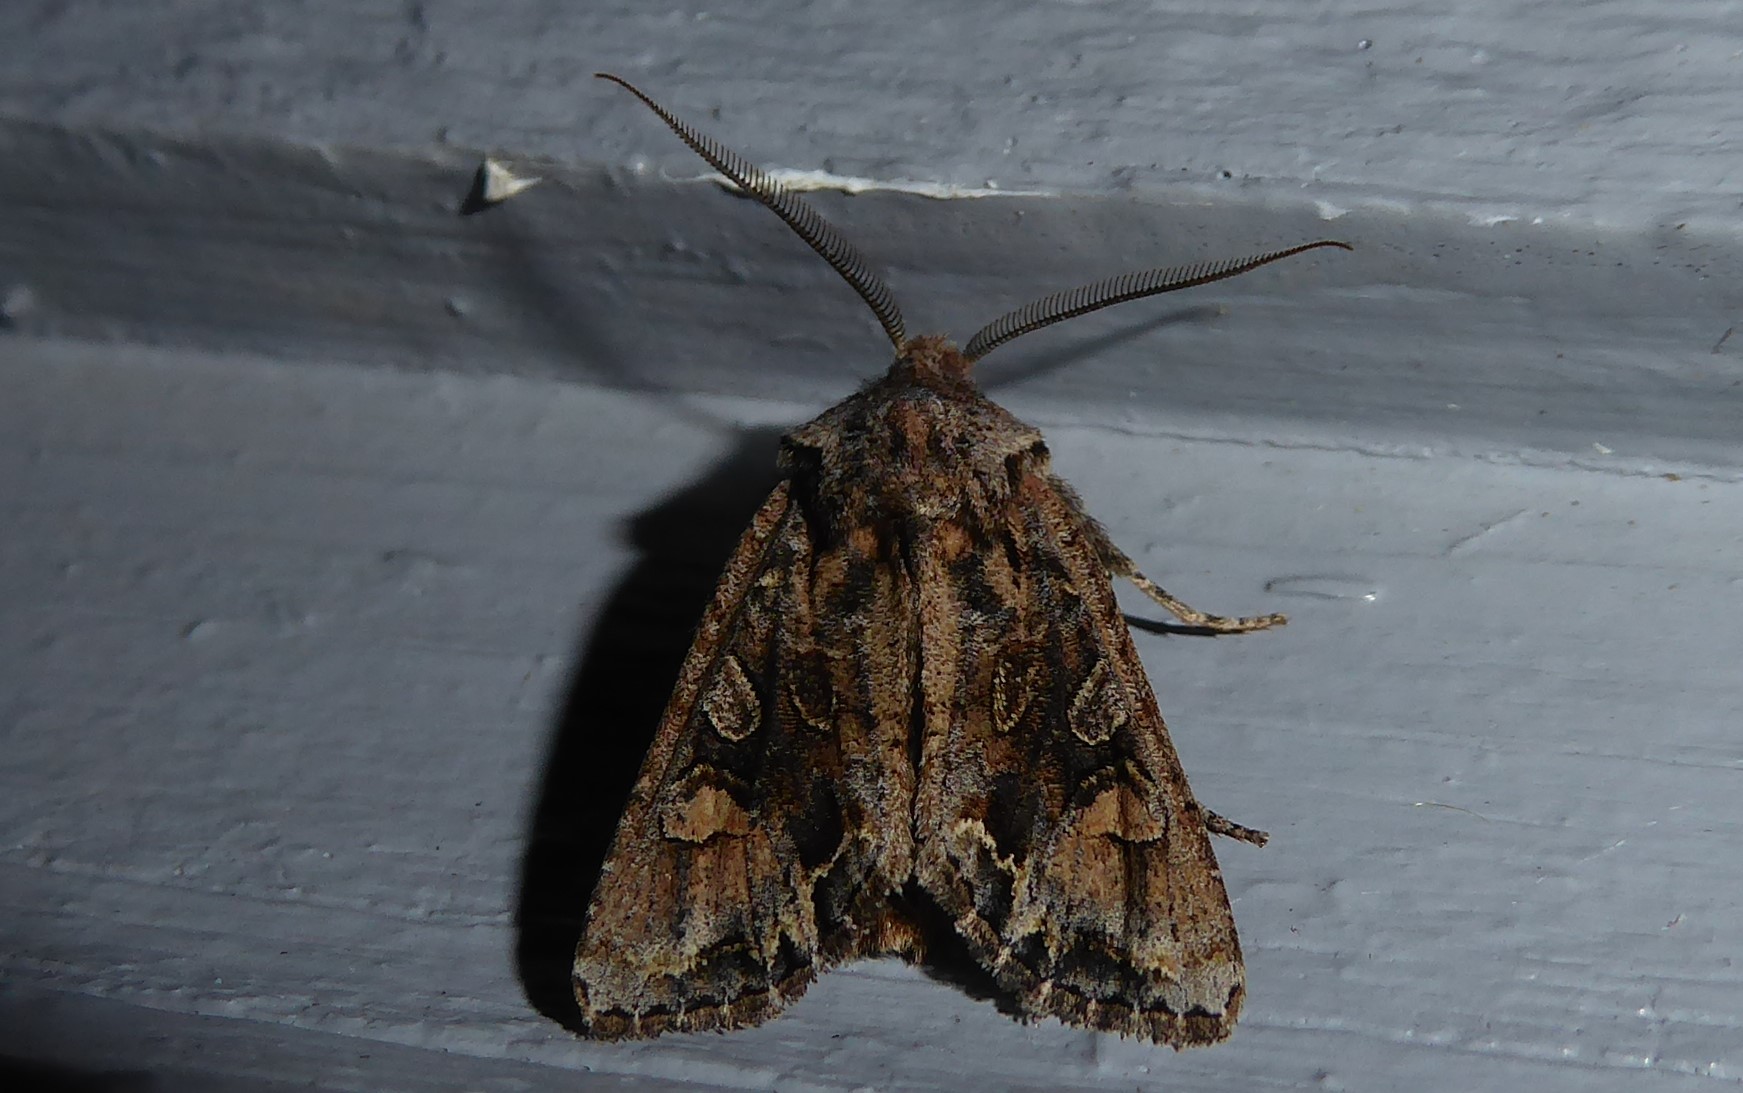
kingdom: Animalia
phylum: Arthropoda
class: Insecta
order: Lepidoptera
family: Noctuidae
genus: Ichneutica
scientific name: Ichneutica skelloni
